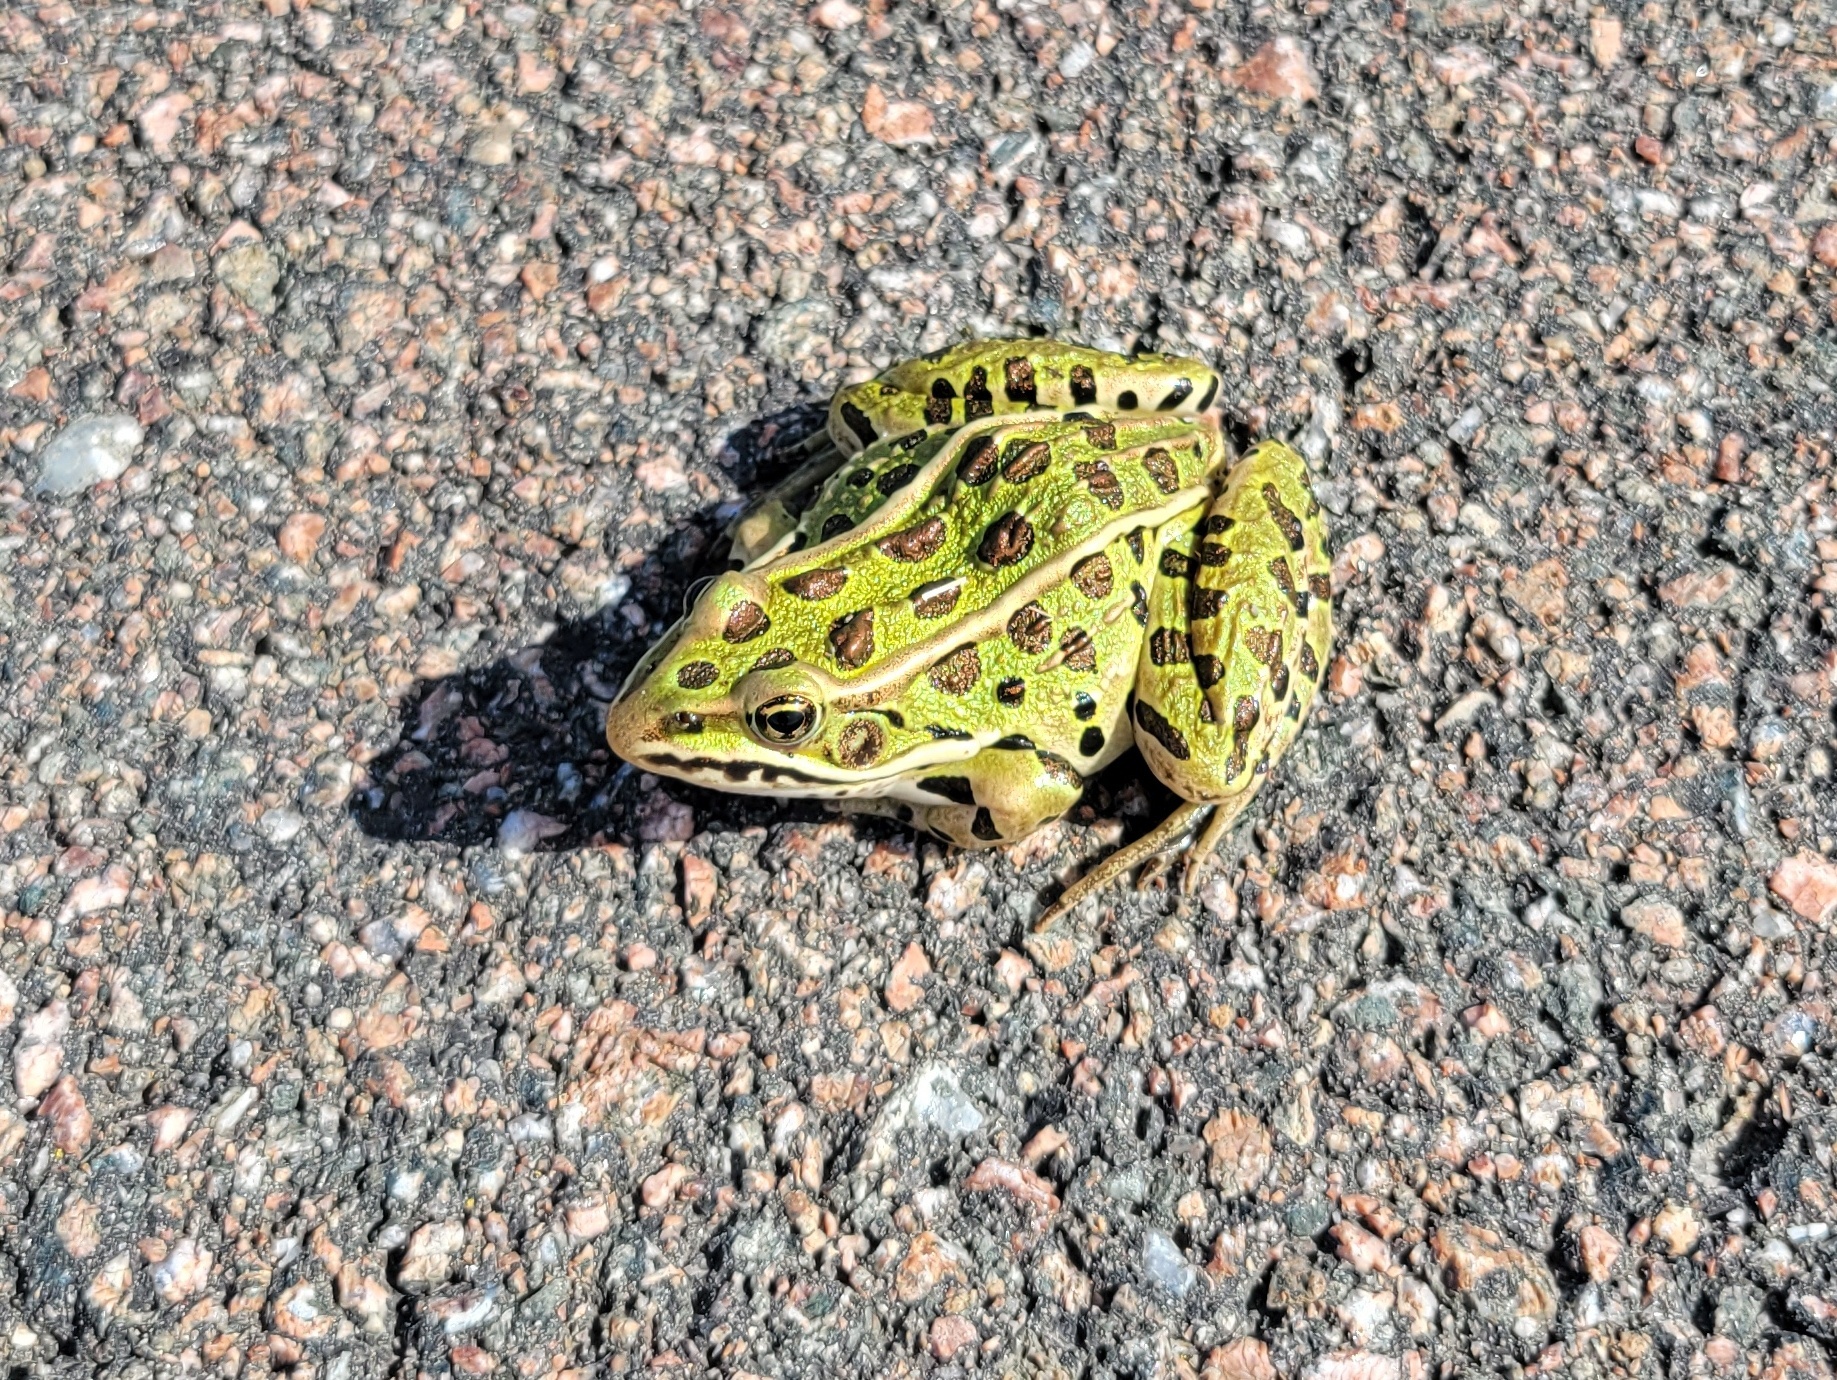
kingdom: Animalia
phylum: Chordata
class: Amphibia
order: Anura
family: Ranidae
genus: Lithobates
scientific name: Lithobates pipiens
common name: Northern leopard frog
